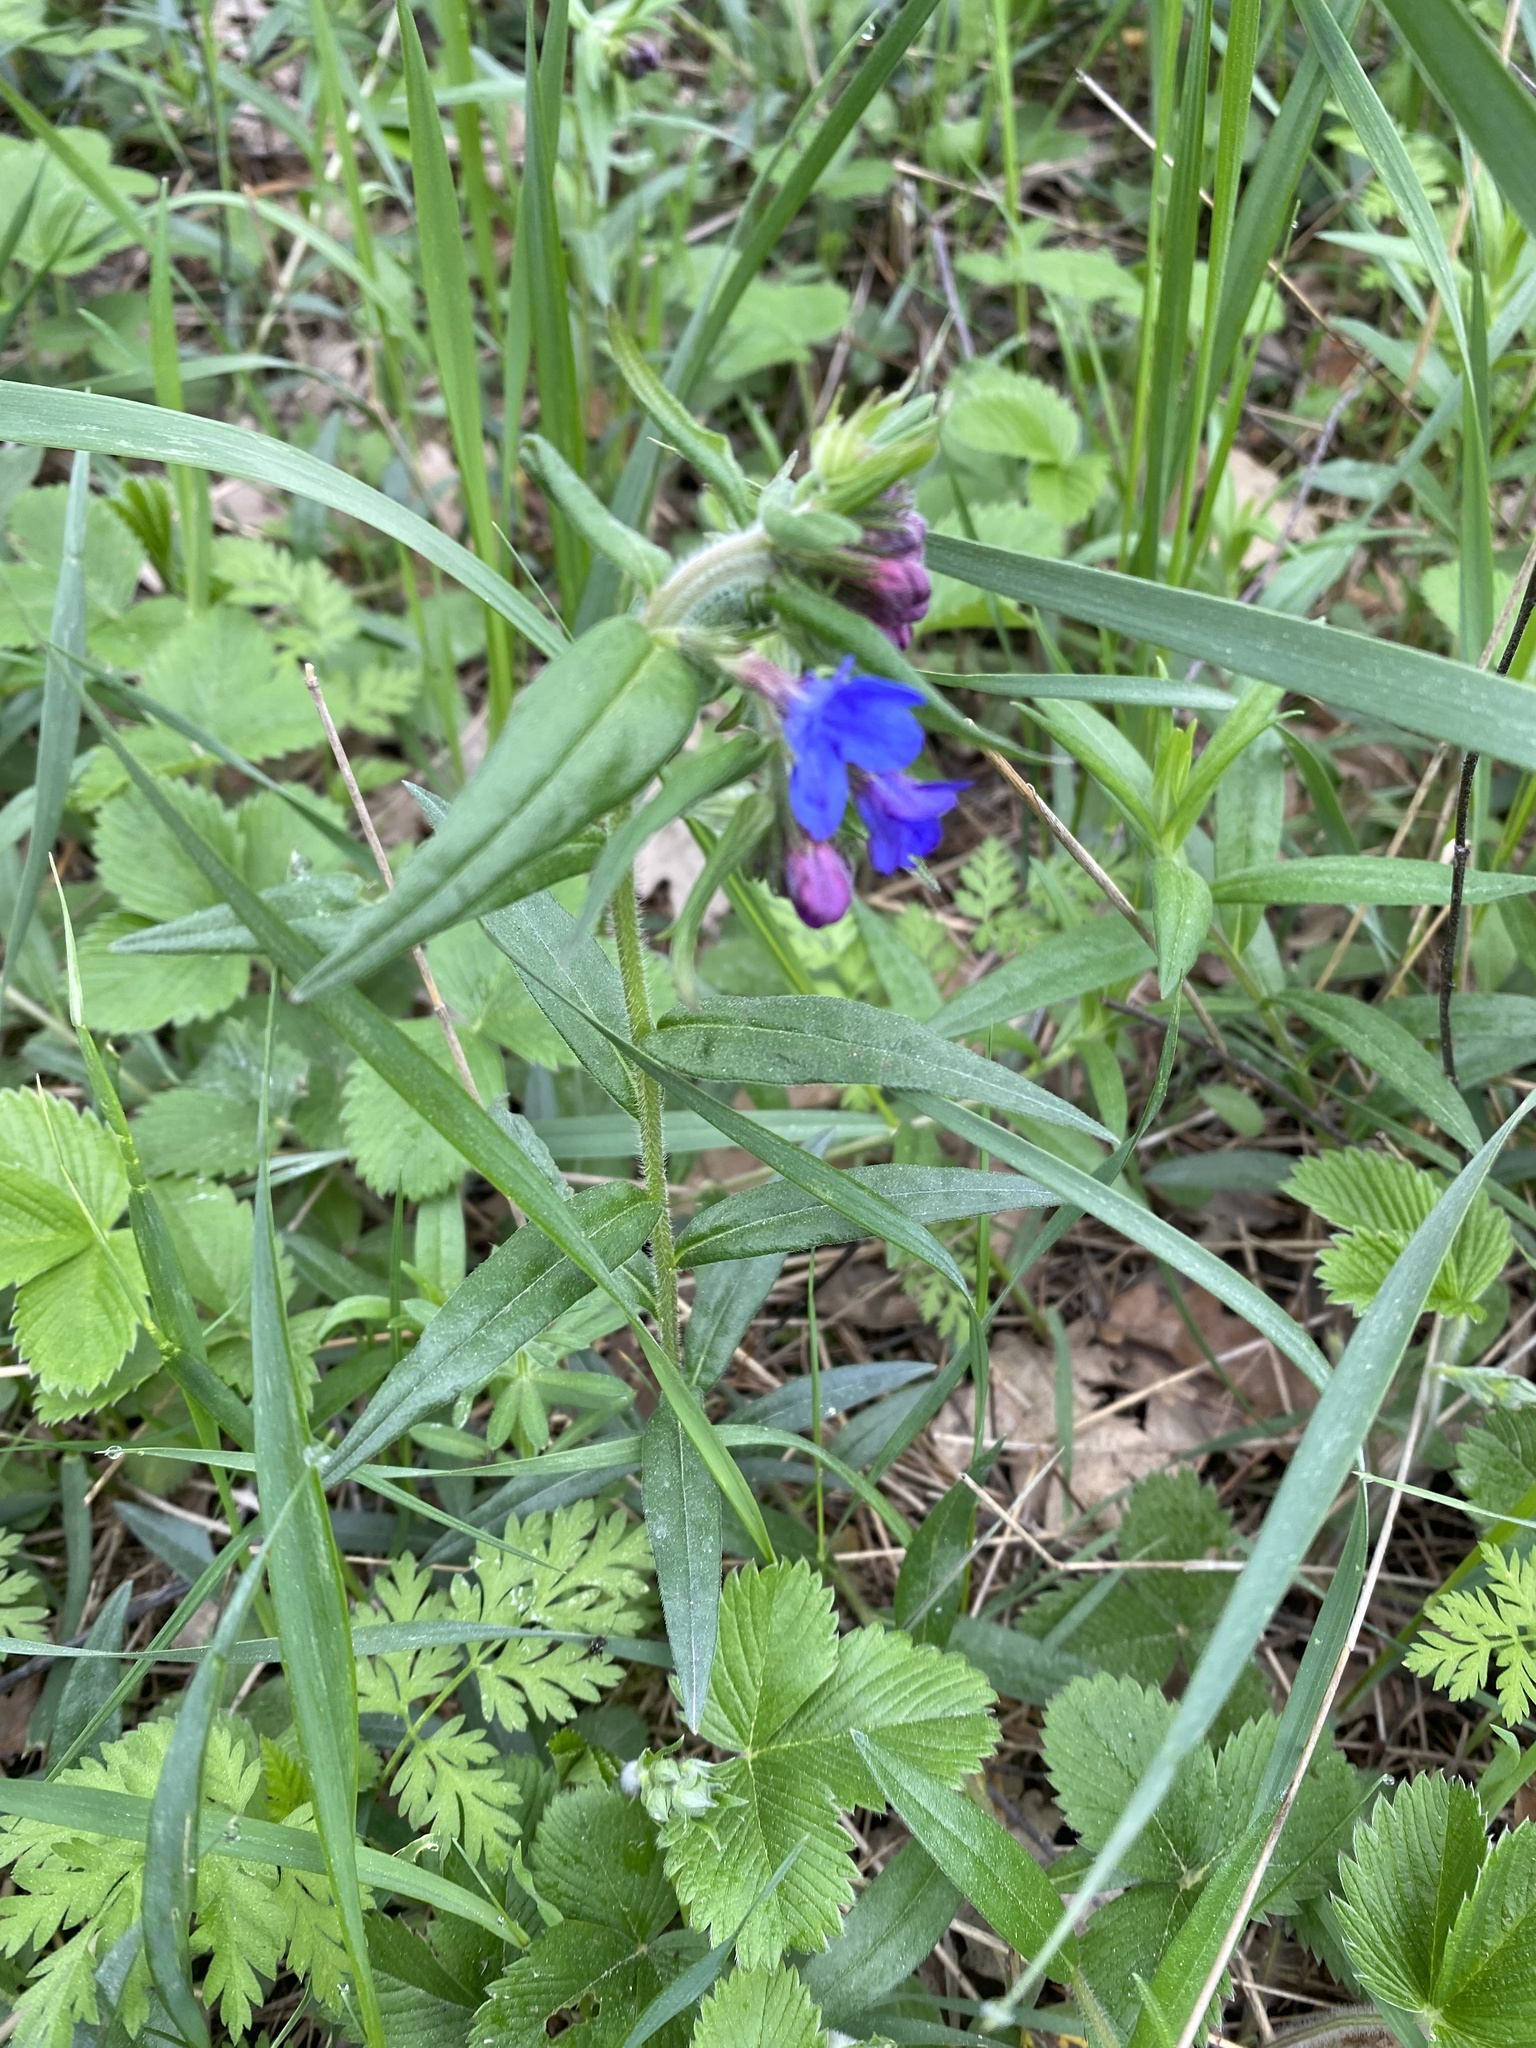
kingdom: Plantae
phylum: Tracheophyta
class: Magnoliopsida
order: Boraginales
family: Boraginaceae
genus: Aegonychon
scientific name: Aegonychon purpurocaeruleum
